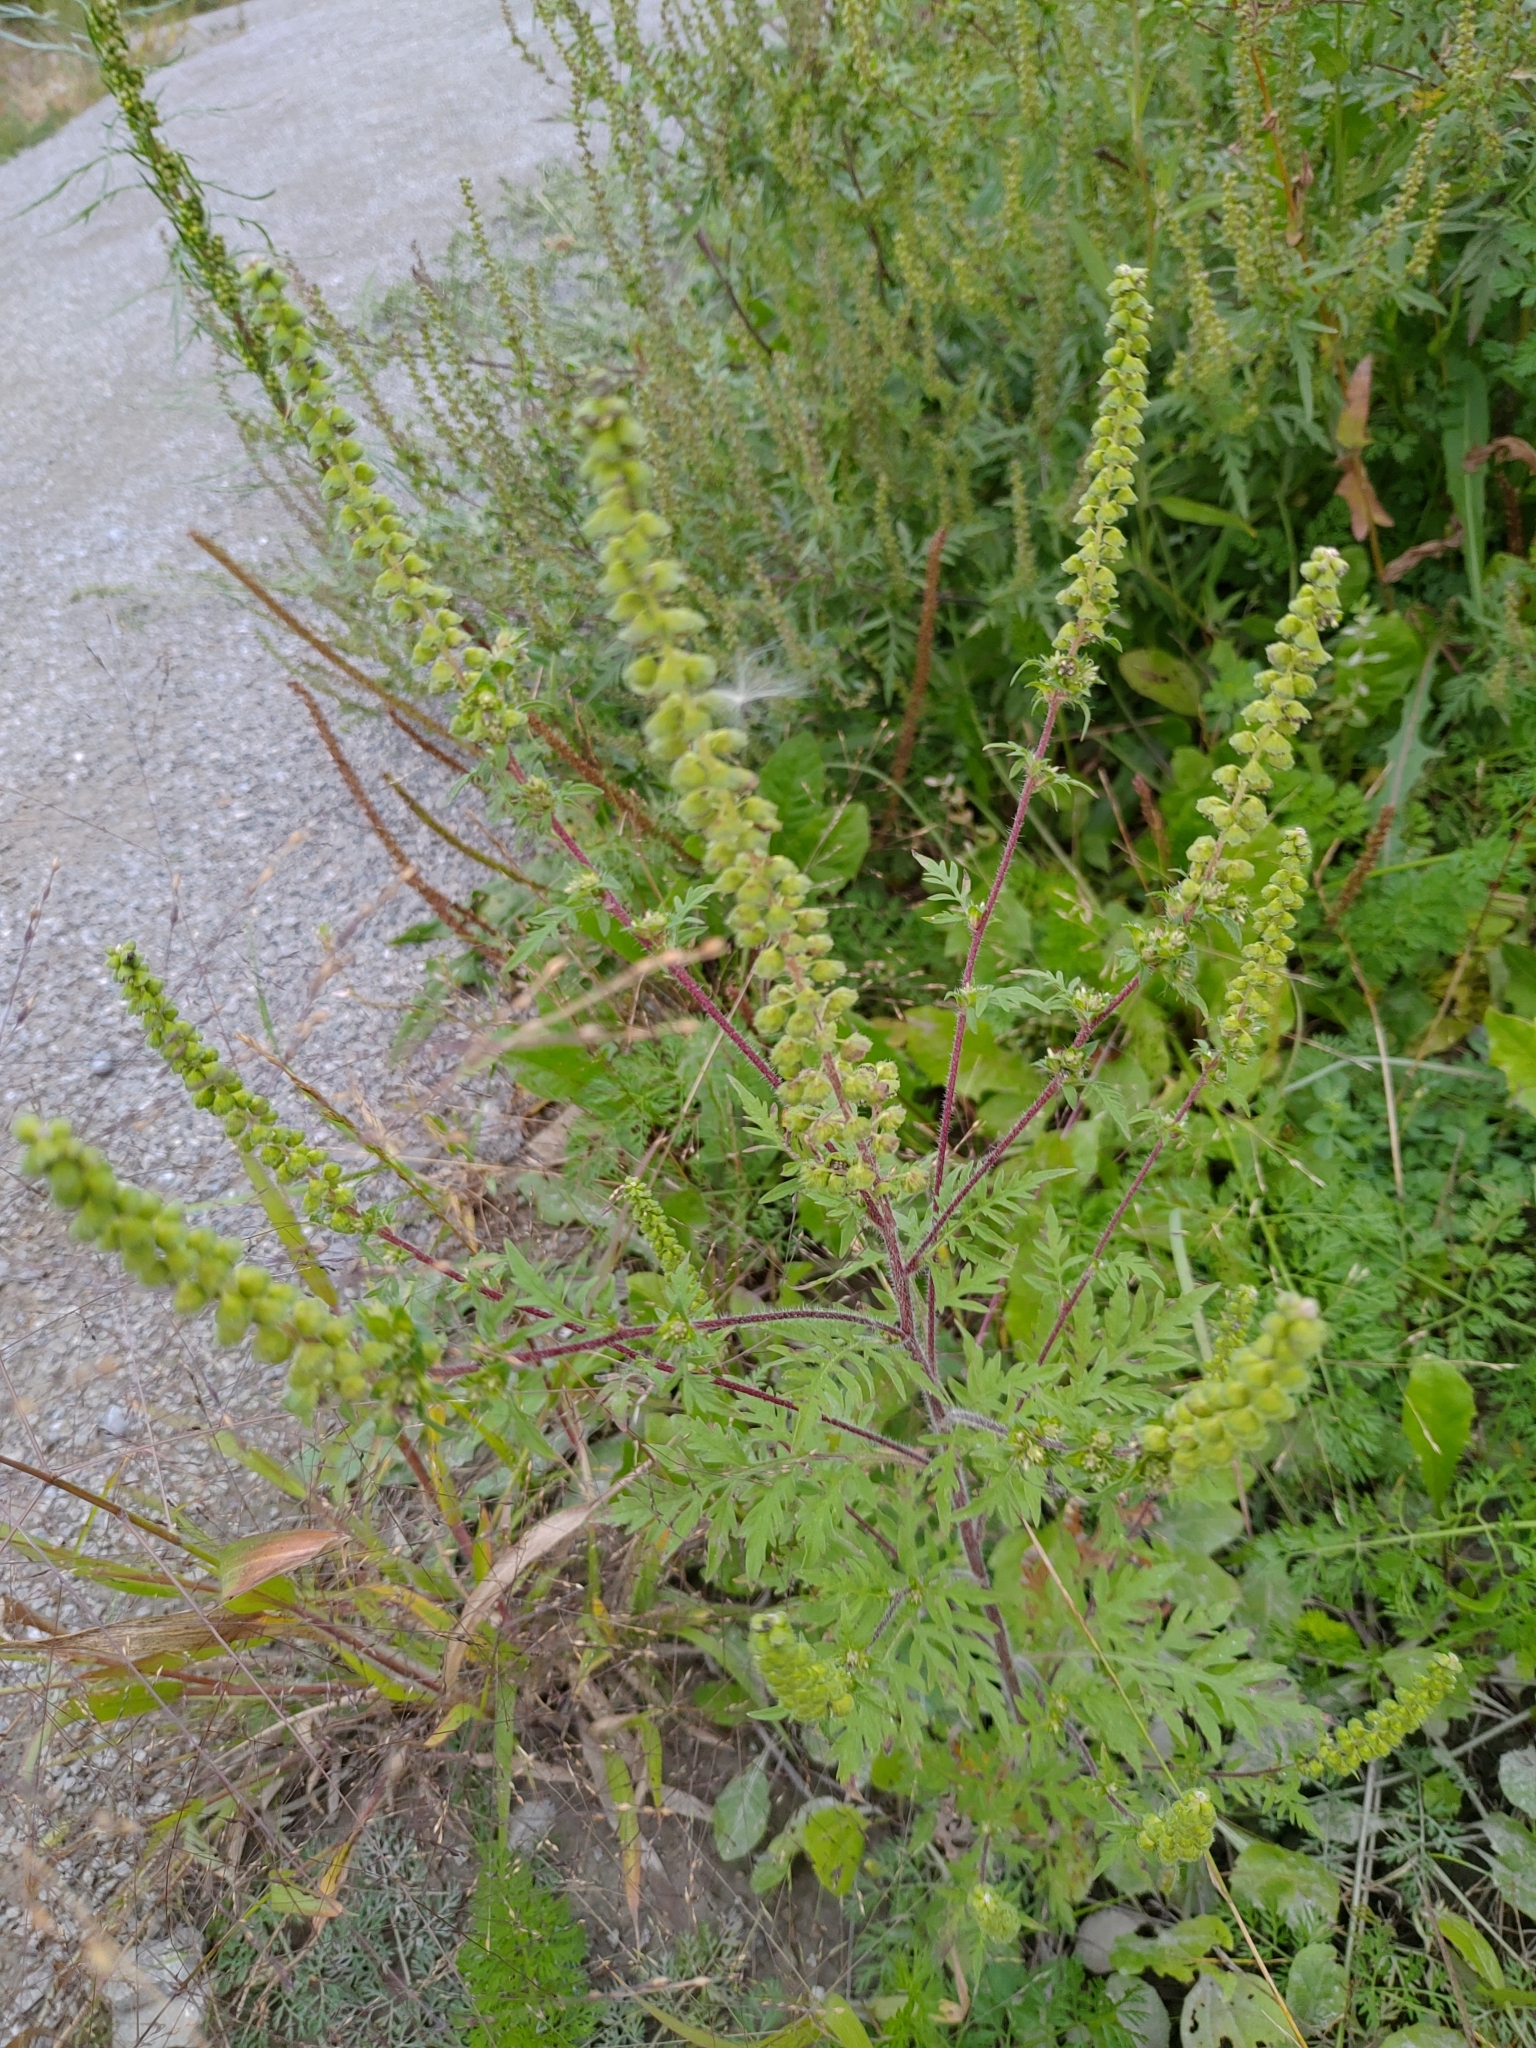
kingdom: Plantae
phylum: Tracheophyta
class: Magnoliopsida
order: Asterales
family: Asteraceae
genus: Ambrosia
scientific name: Ambrosia artemisiifolia
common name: Annual ragweed
